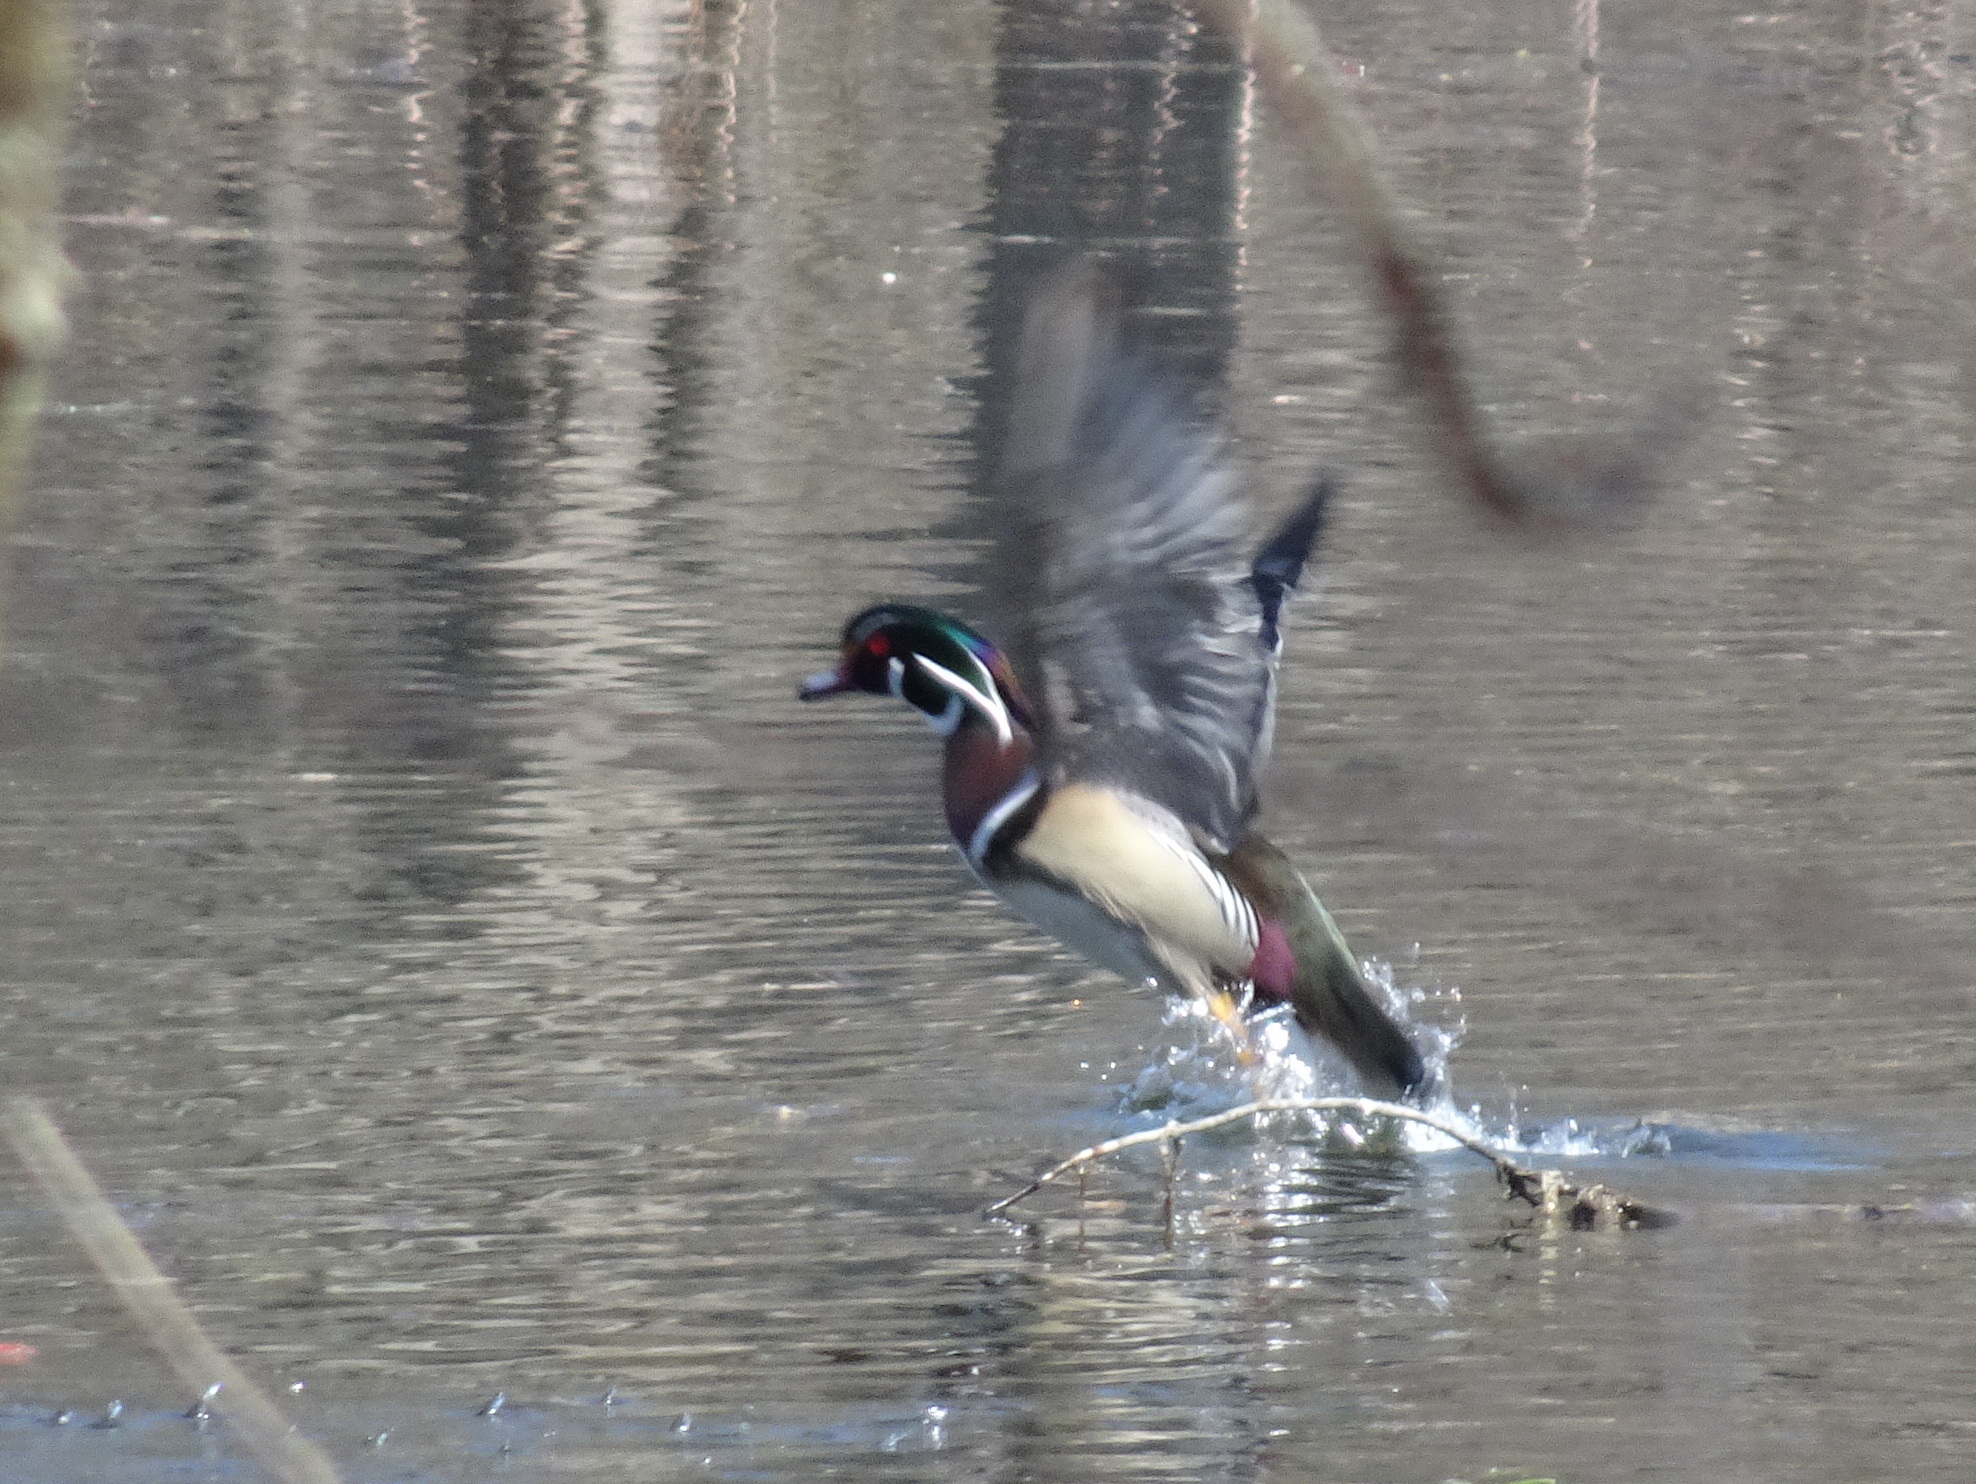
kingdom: Animalia
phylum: Chordata
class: Aves
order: Anseriformes
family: Anatidae
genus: Aix
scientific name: Aix sponsa
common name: Wood duck
